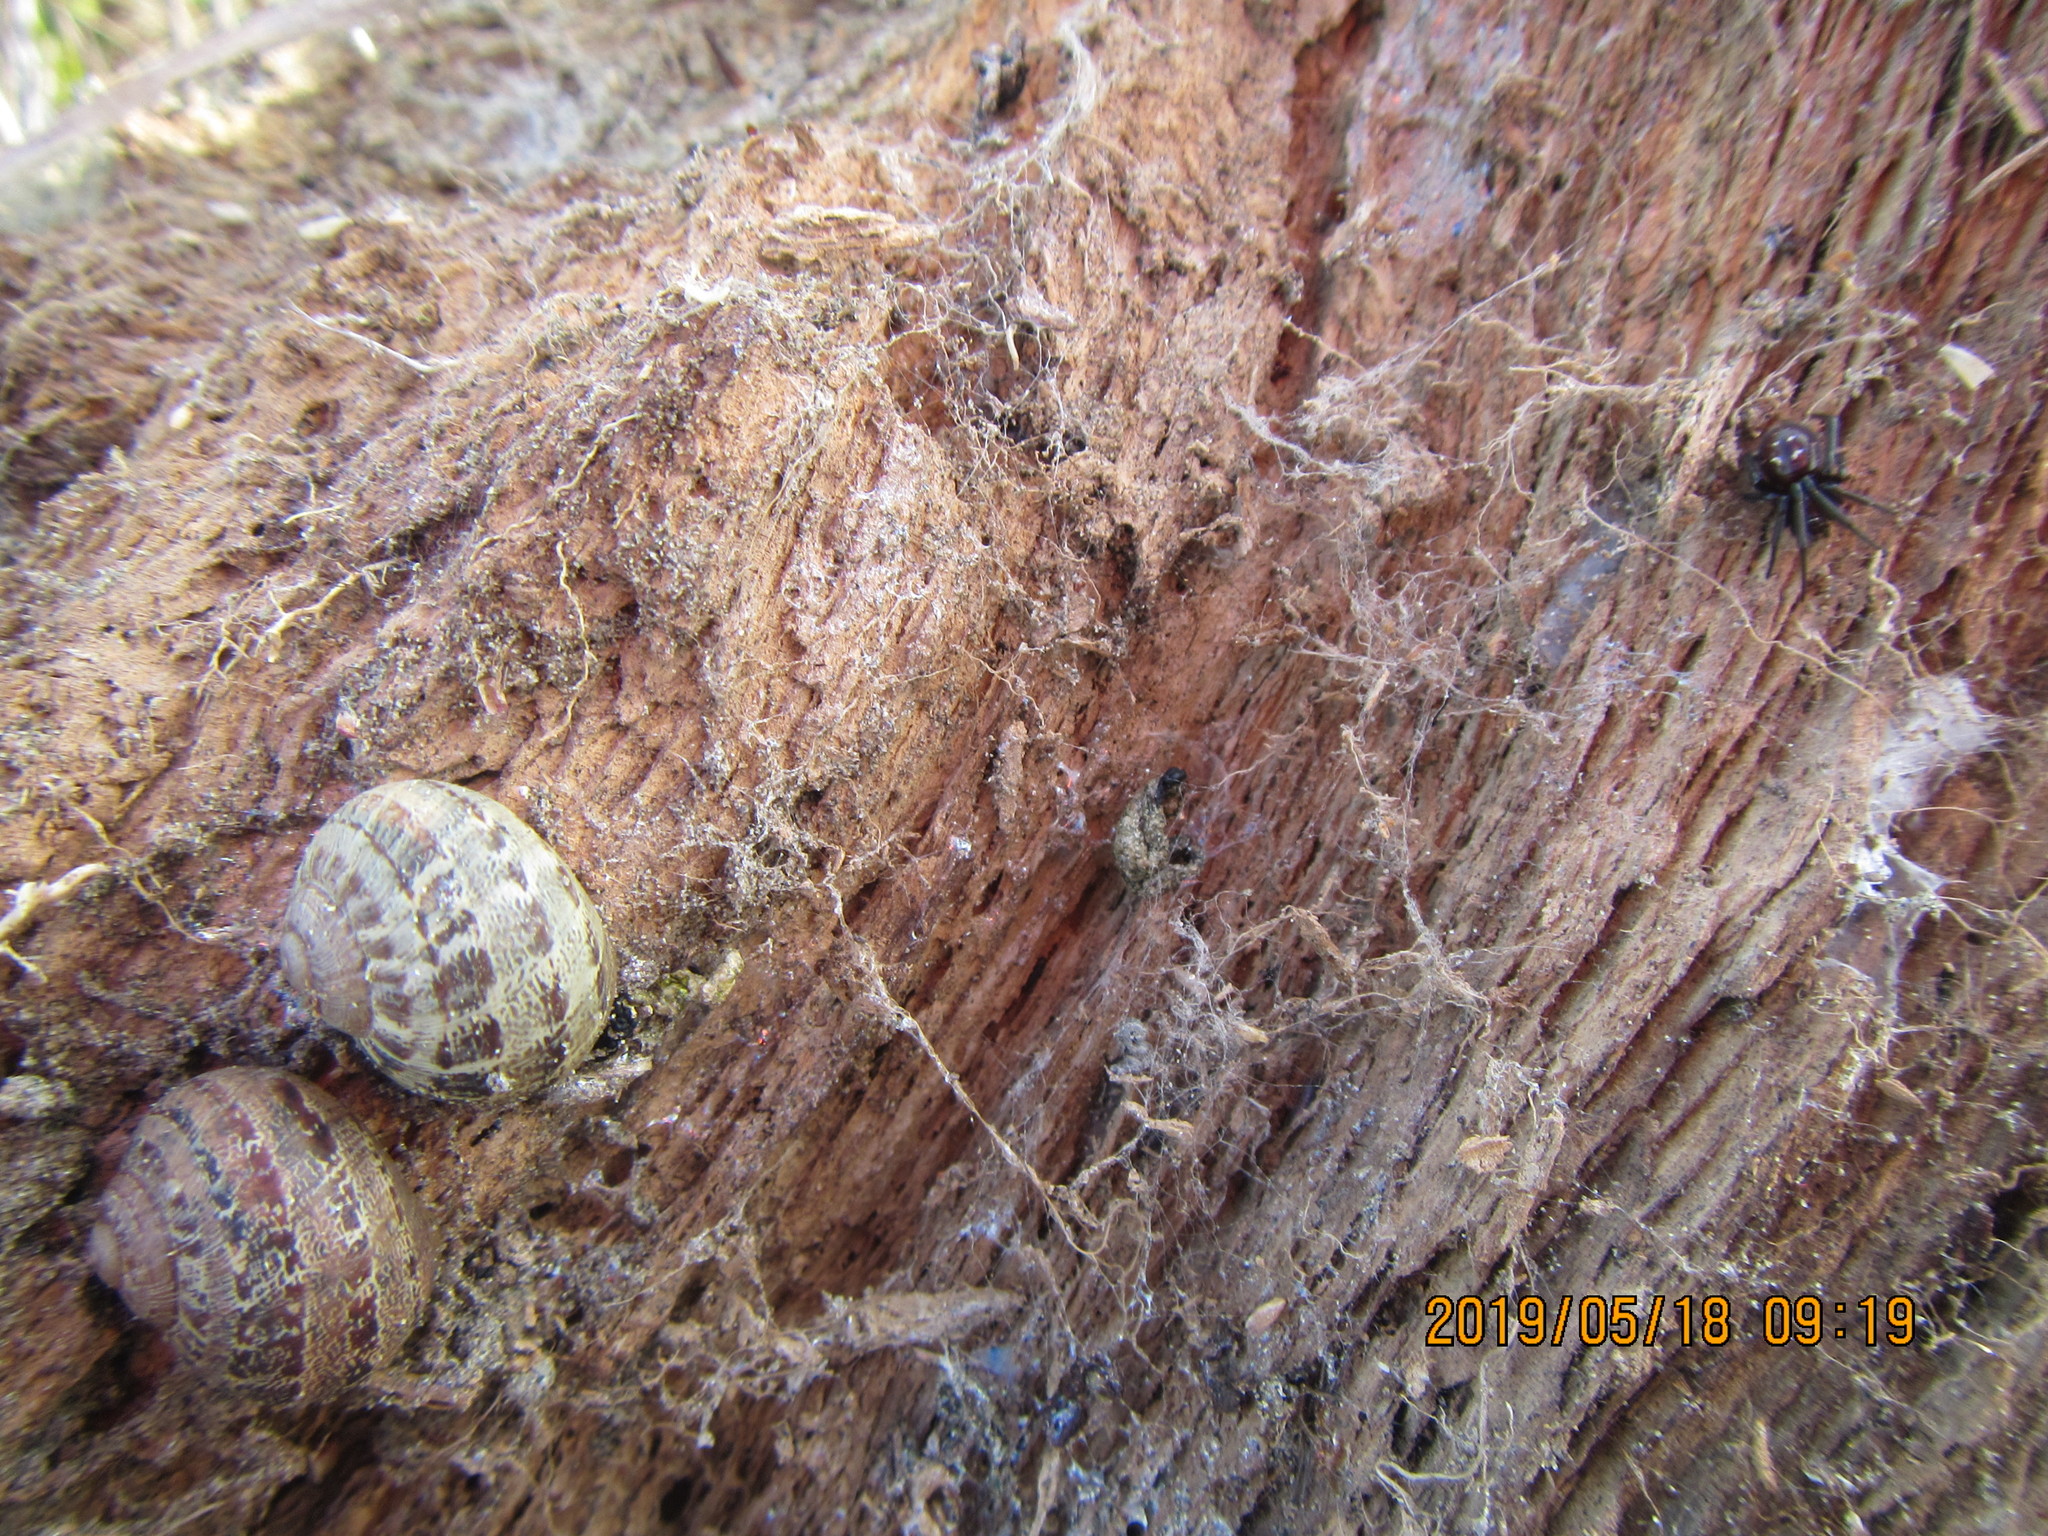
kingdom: Animalia
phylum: Mollusca
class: Gastropoda
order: Stylommatophora
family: Helicidae
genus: Cornu
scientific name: Cornu aspersum
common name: Brown garden snail
